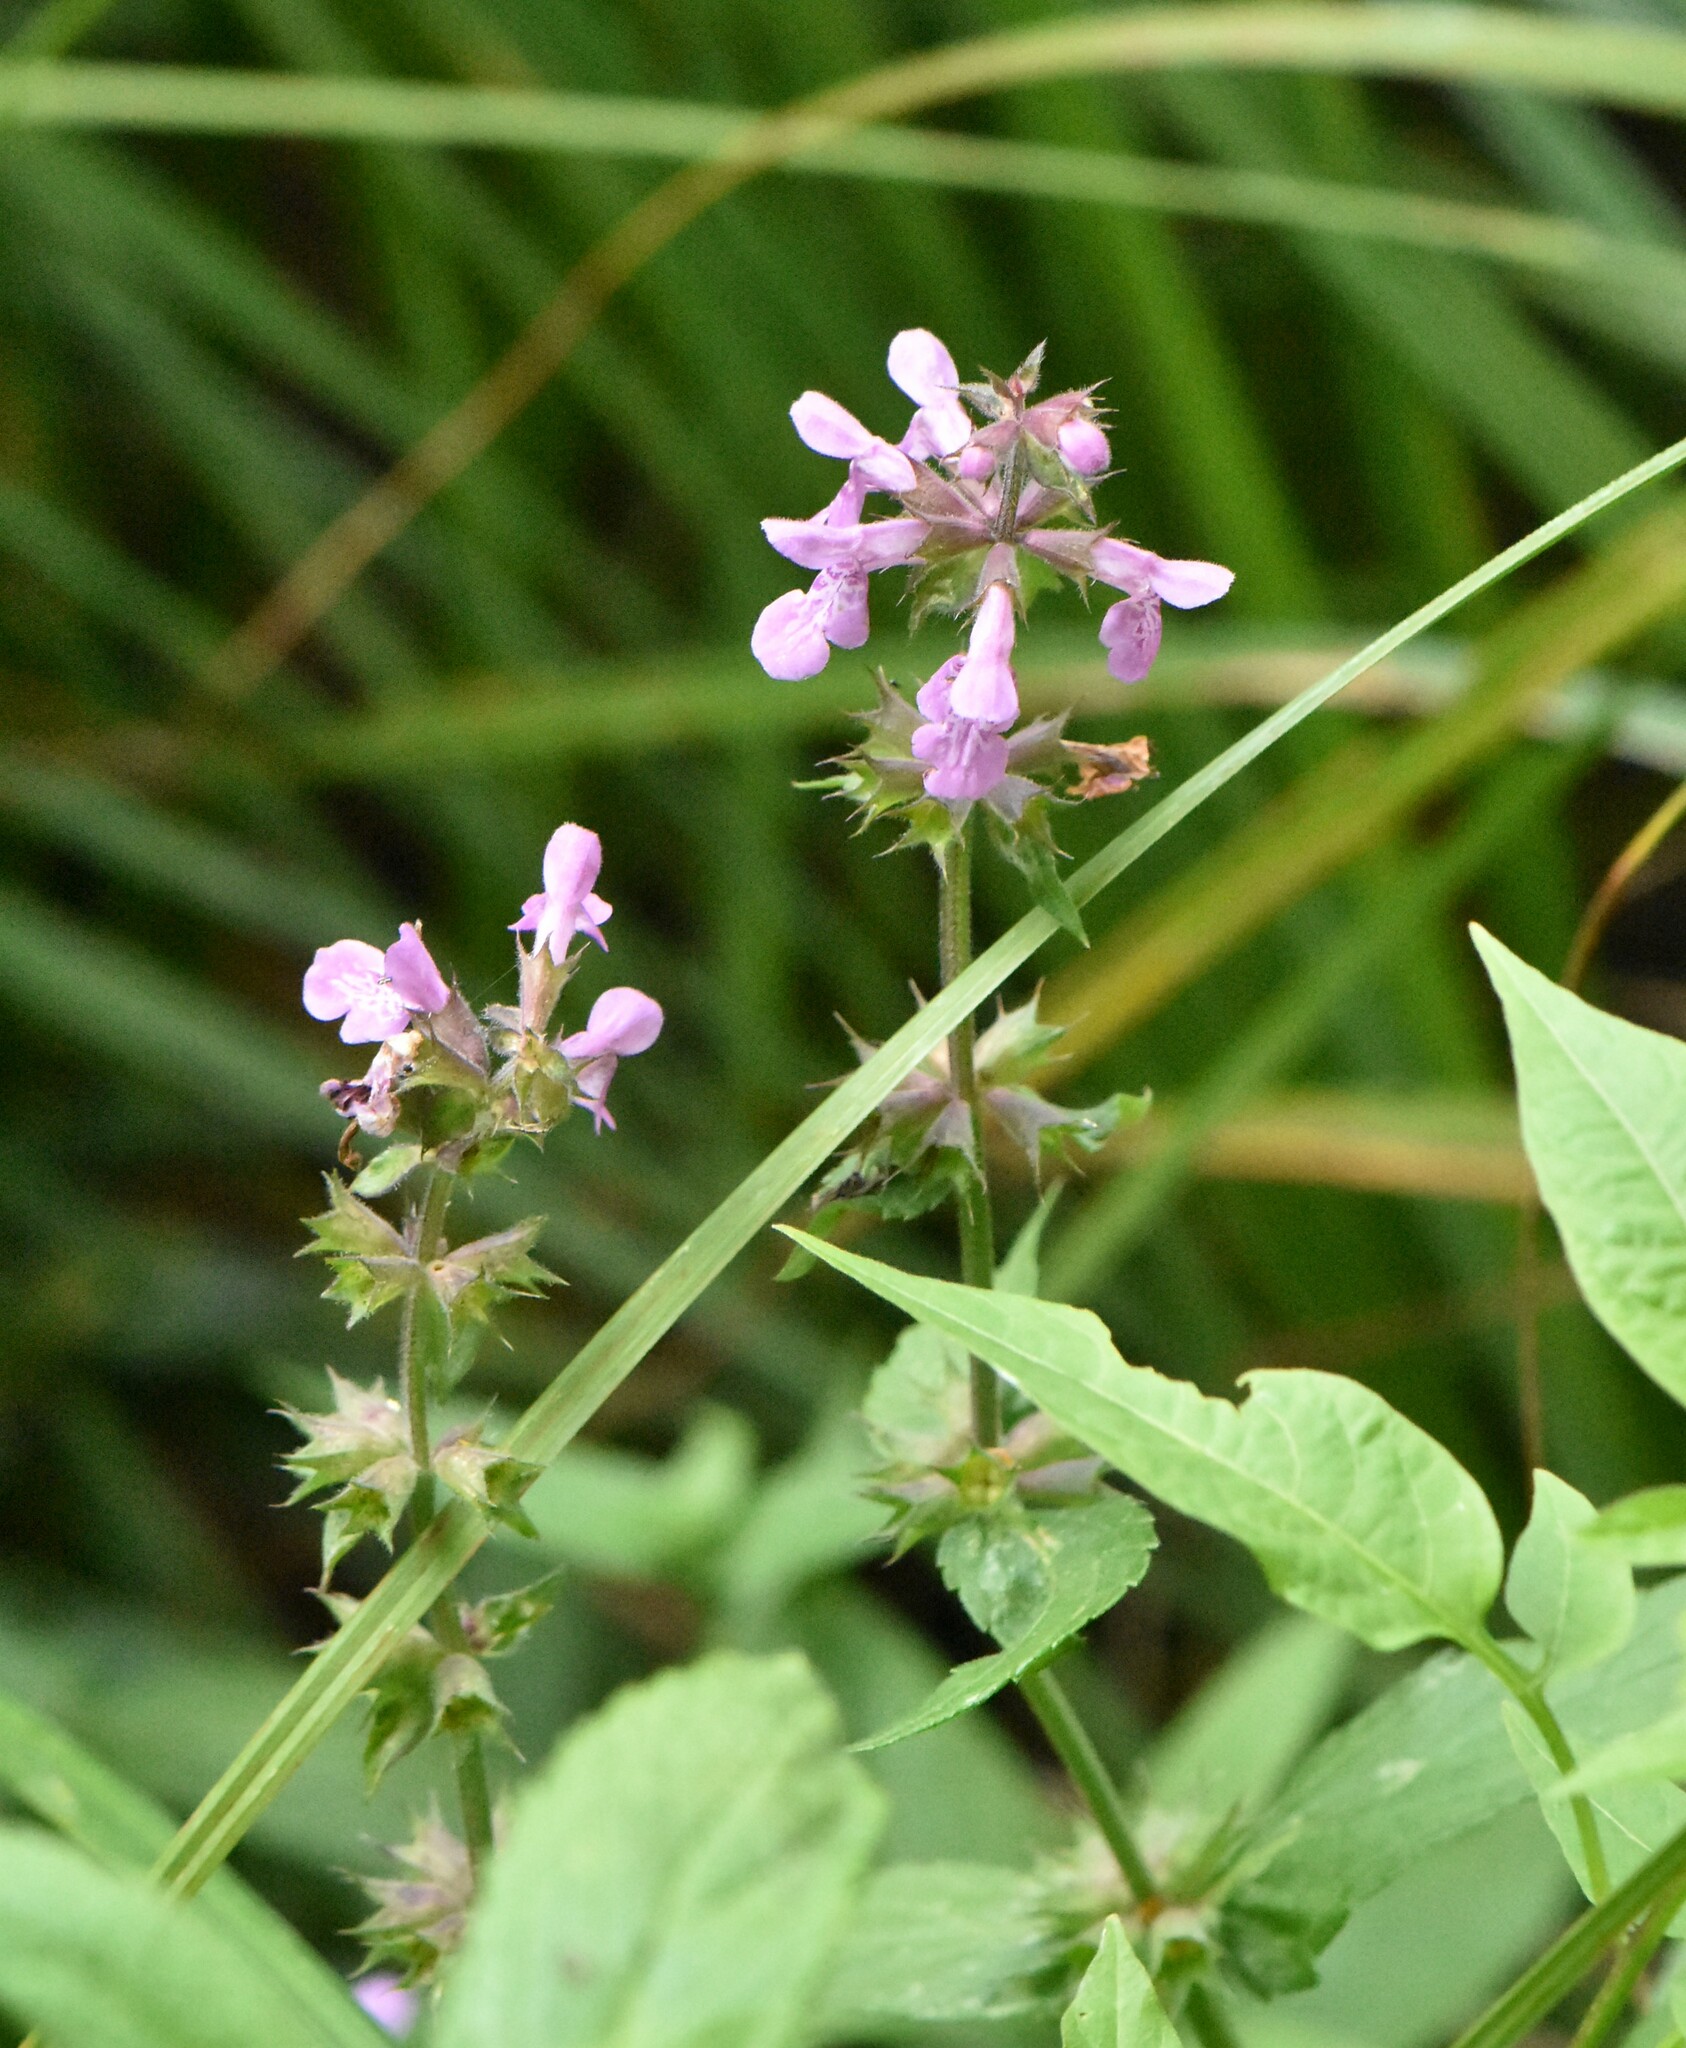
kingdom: Plantae
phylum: Tracheophyta
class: Magnoliopsida
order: Lamiales
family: Lamiaceae
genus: Stachys
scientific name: Stachys palustris
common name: Marsh woundwort
